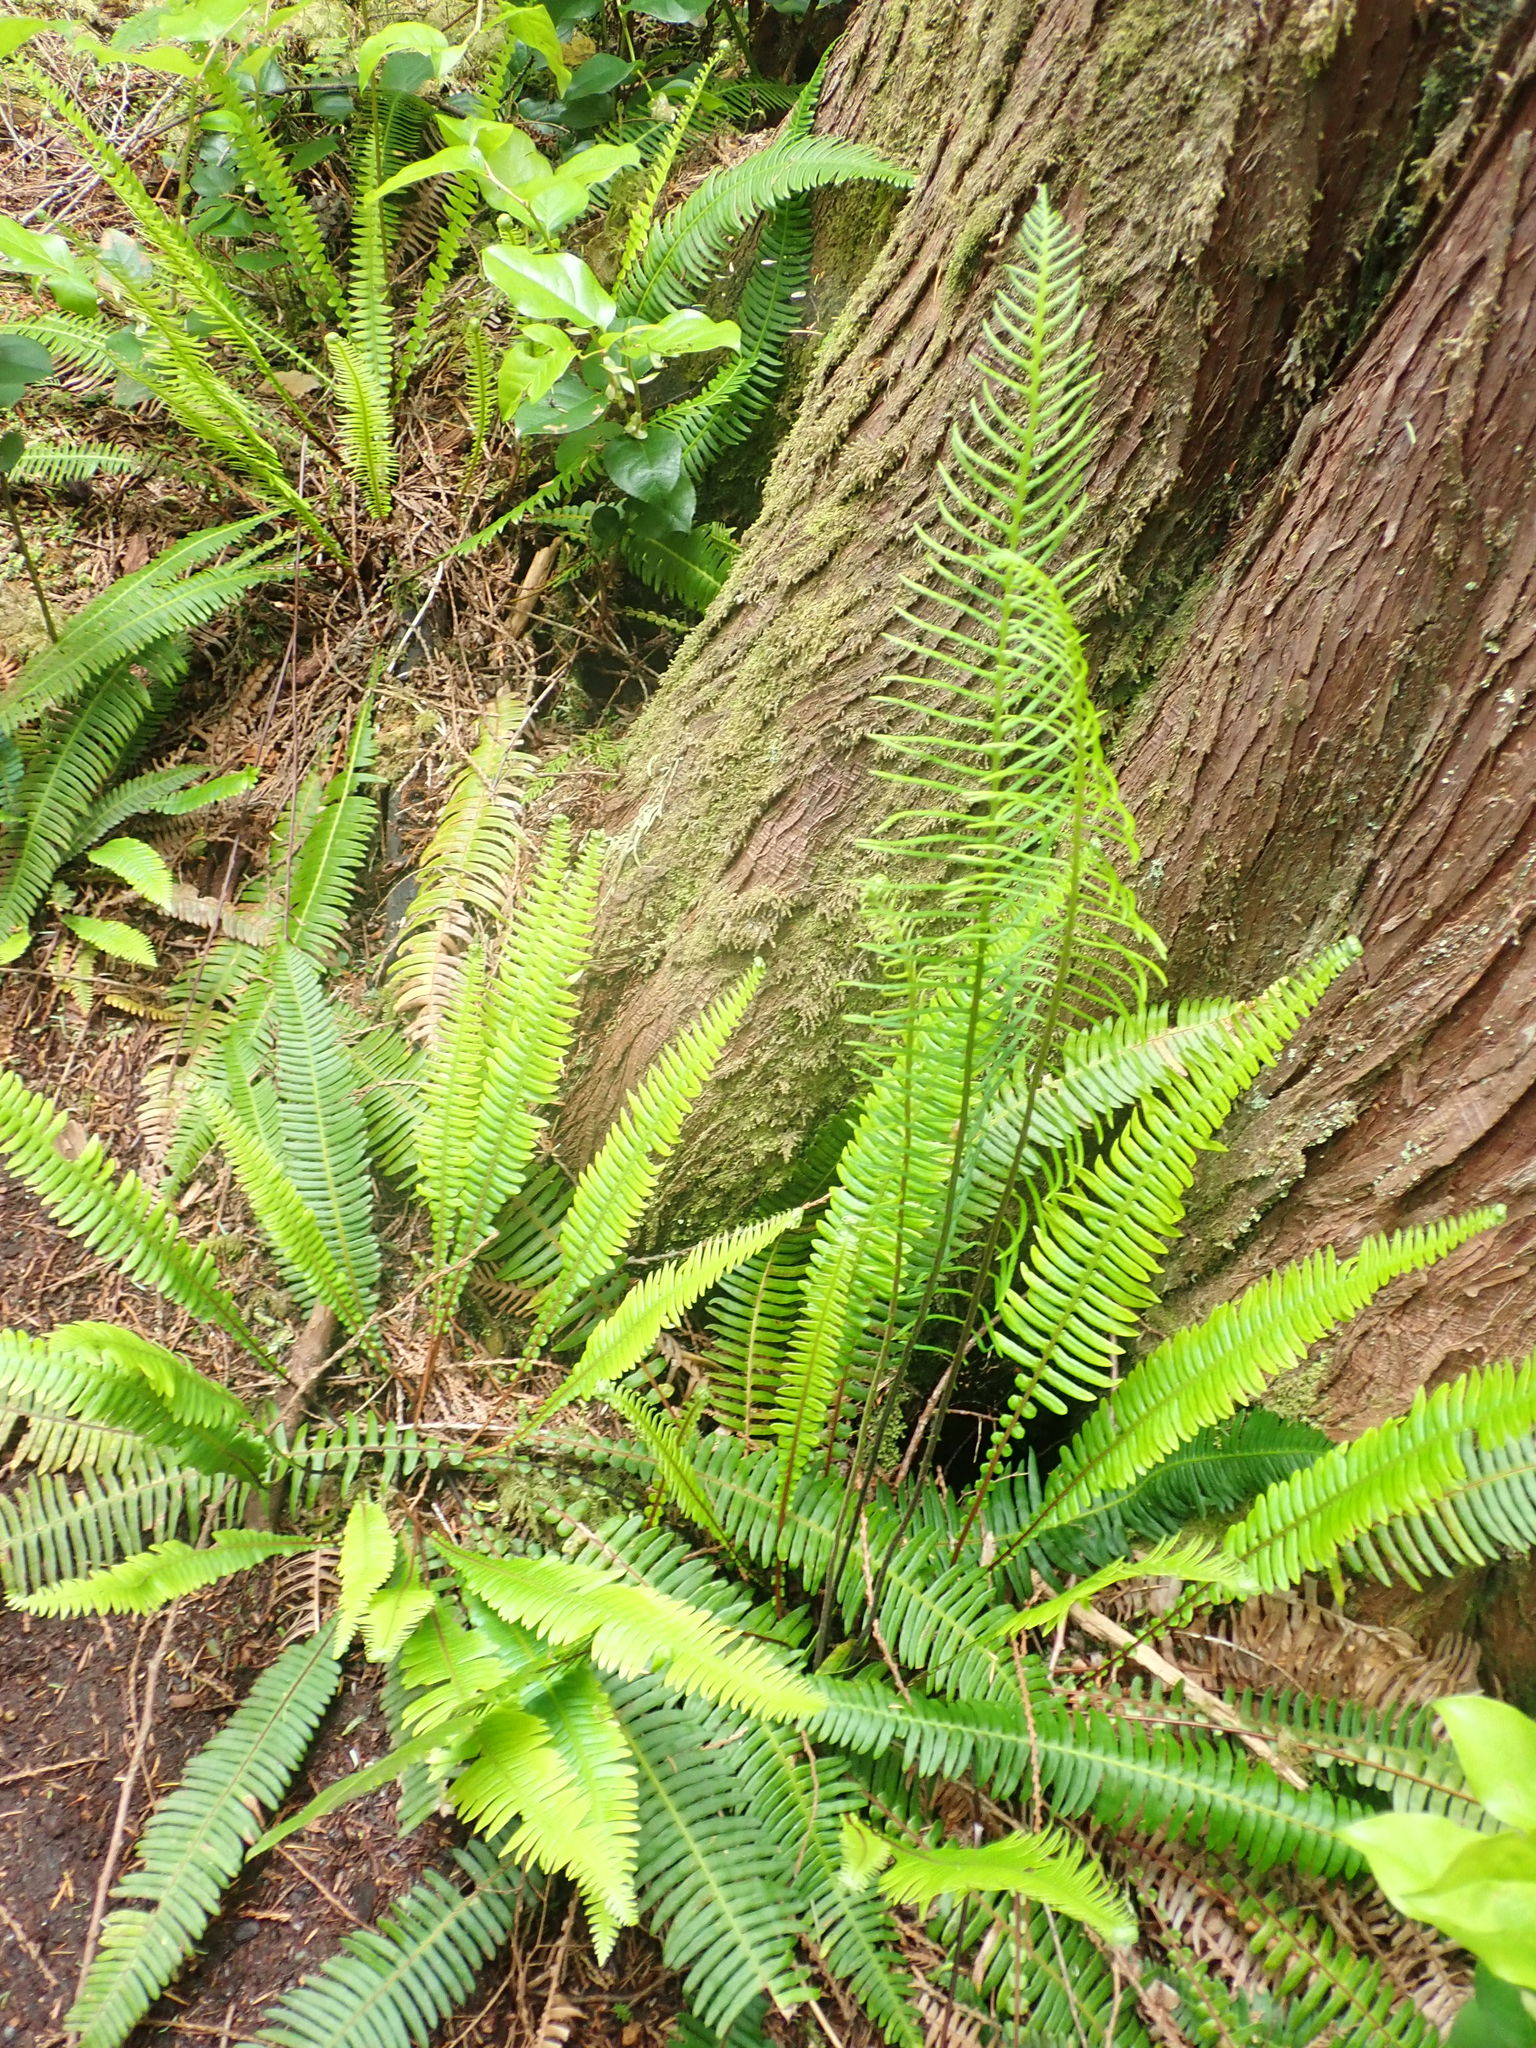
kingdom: Plantae
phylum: Tracheophyta
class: Polypodiopsida
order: Polypodiales
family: Blechnaceae
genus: Struthiopteris
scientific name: Struthiopteris spicant
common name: Deer fern
